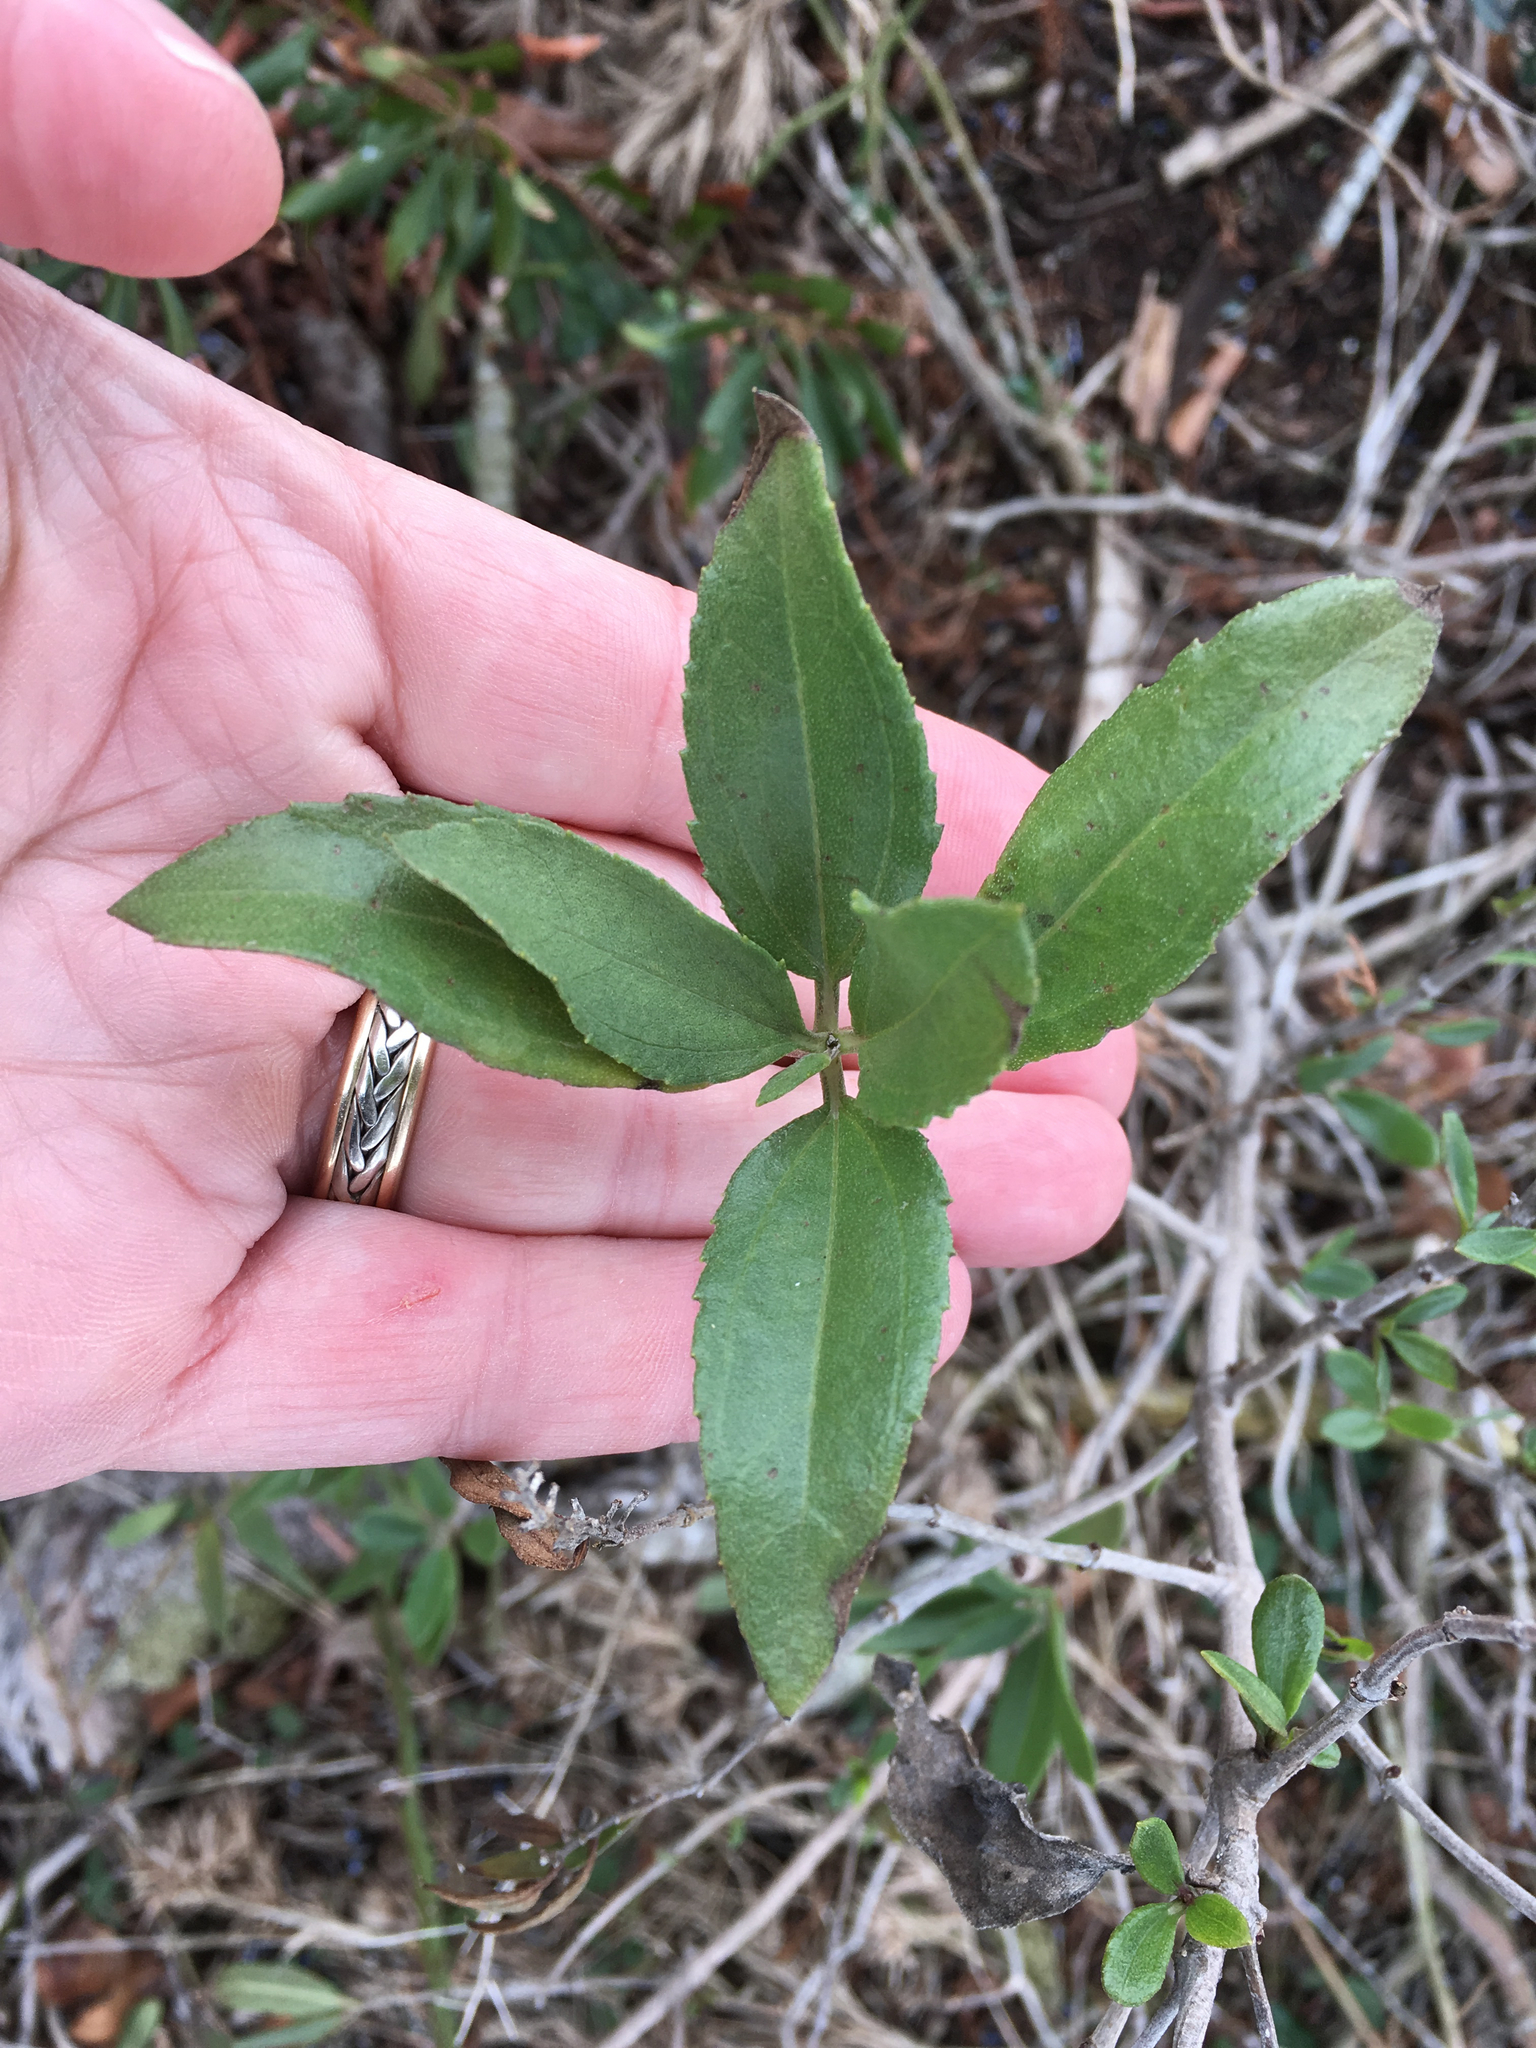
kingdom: Plantae
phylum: Tracheophyta
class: Magnoliopsida
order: Asterales
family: Asteraceae
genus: Iva
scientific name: Iva frutescens
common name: Big-leaved marsh-elder
